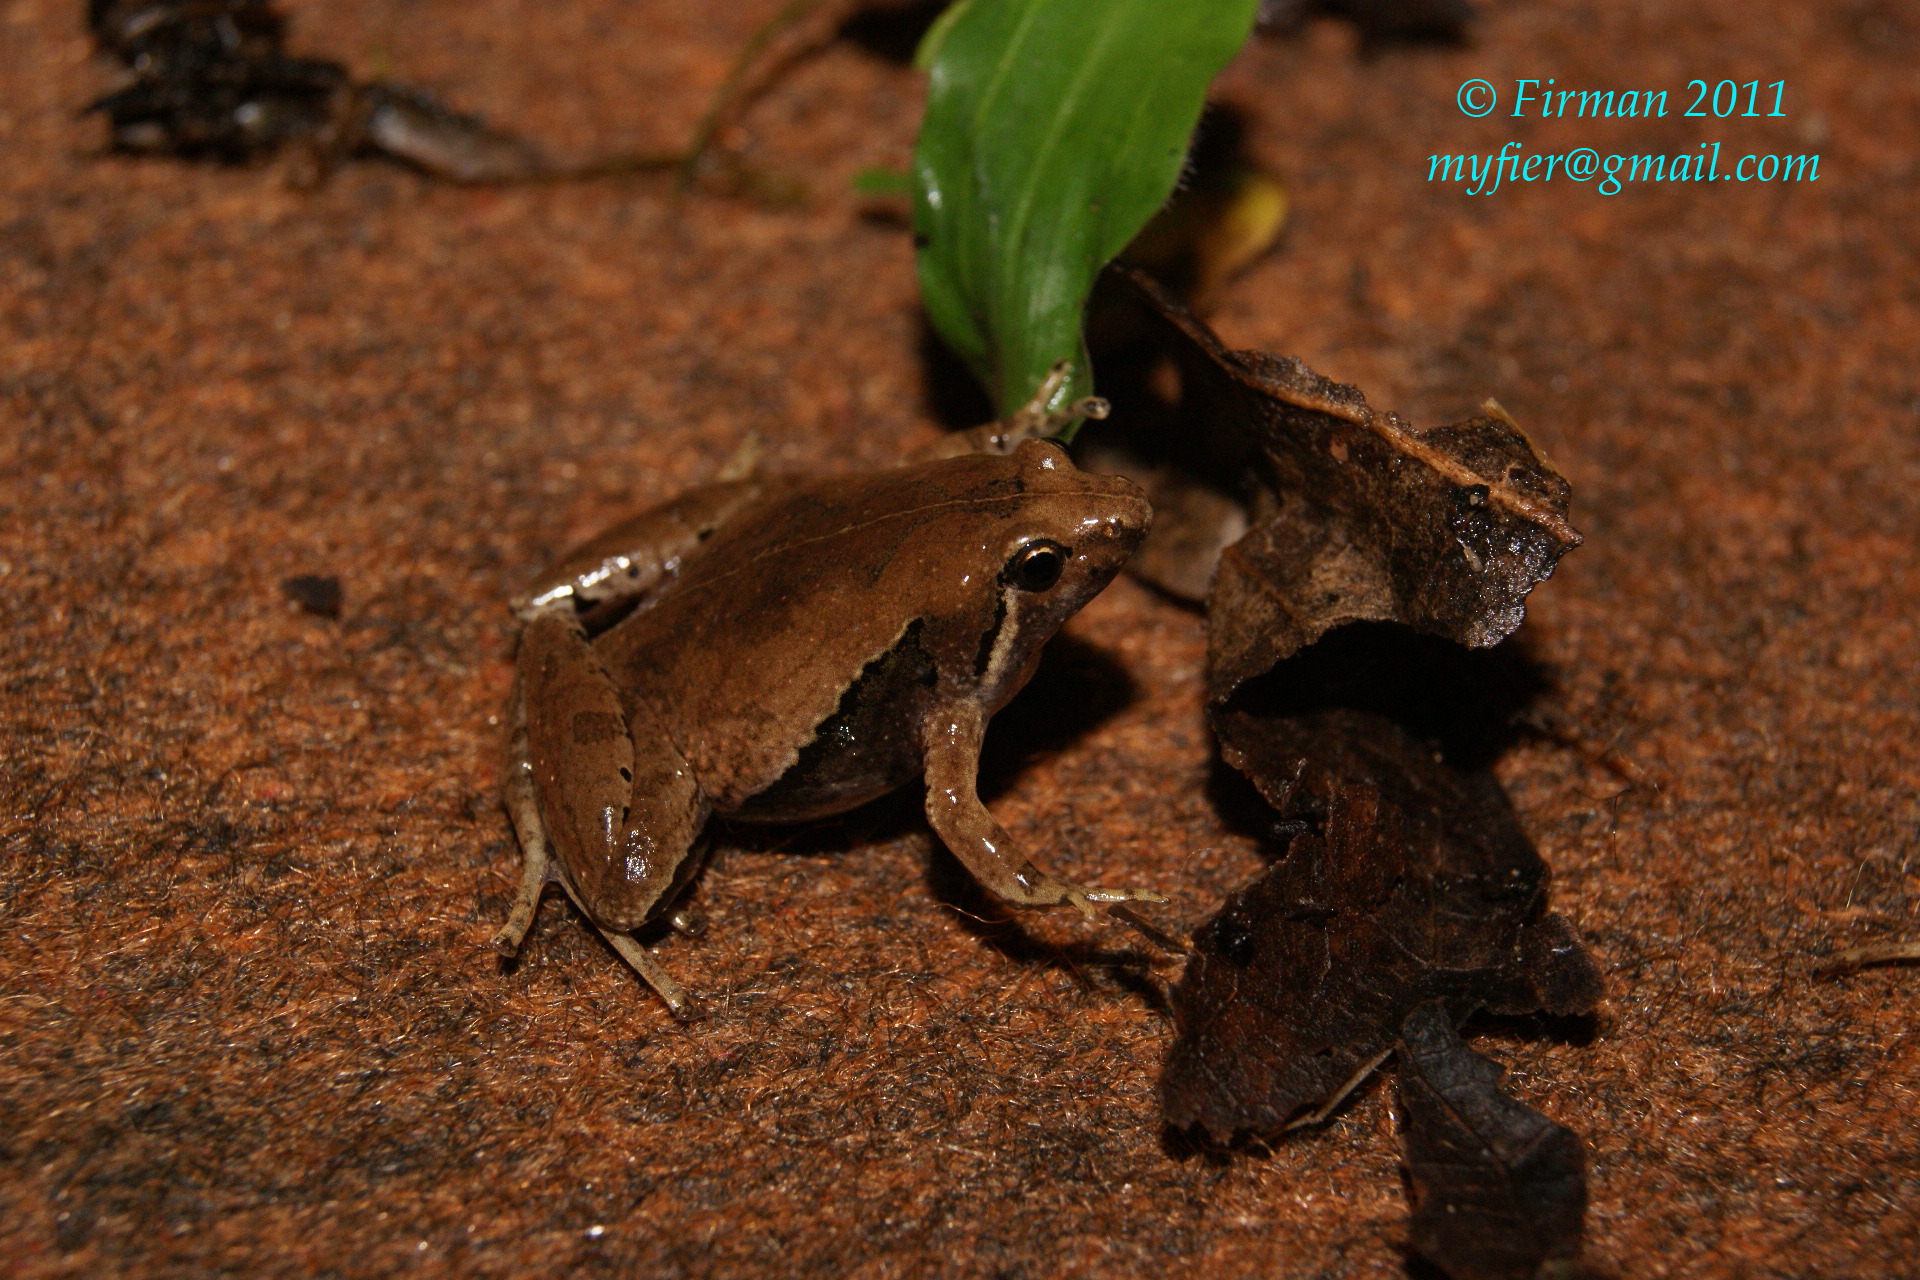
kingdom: Animalia
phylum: Chordata
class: Amphibia
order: Anura
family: Microhylidae
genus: Microhyla
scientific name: Microhyla achatina
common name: Javan chorus frog
